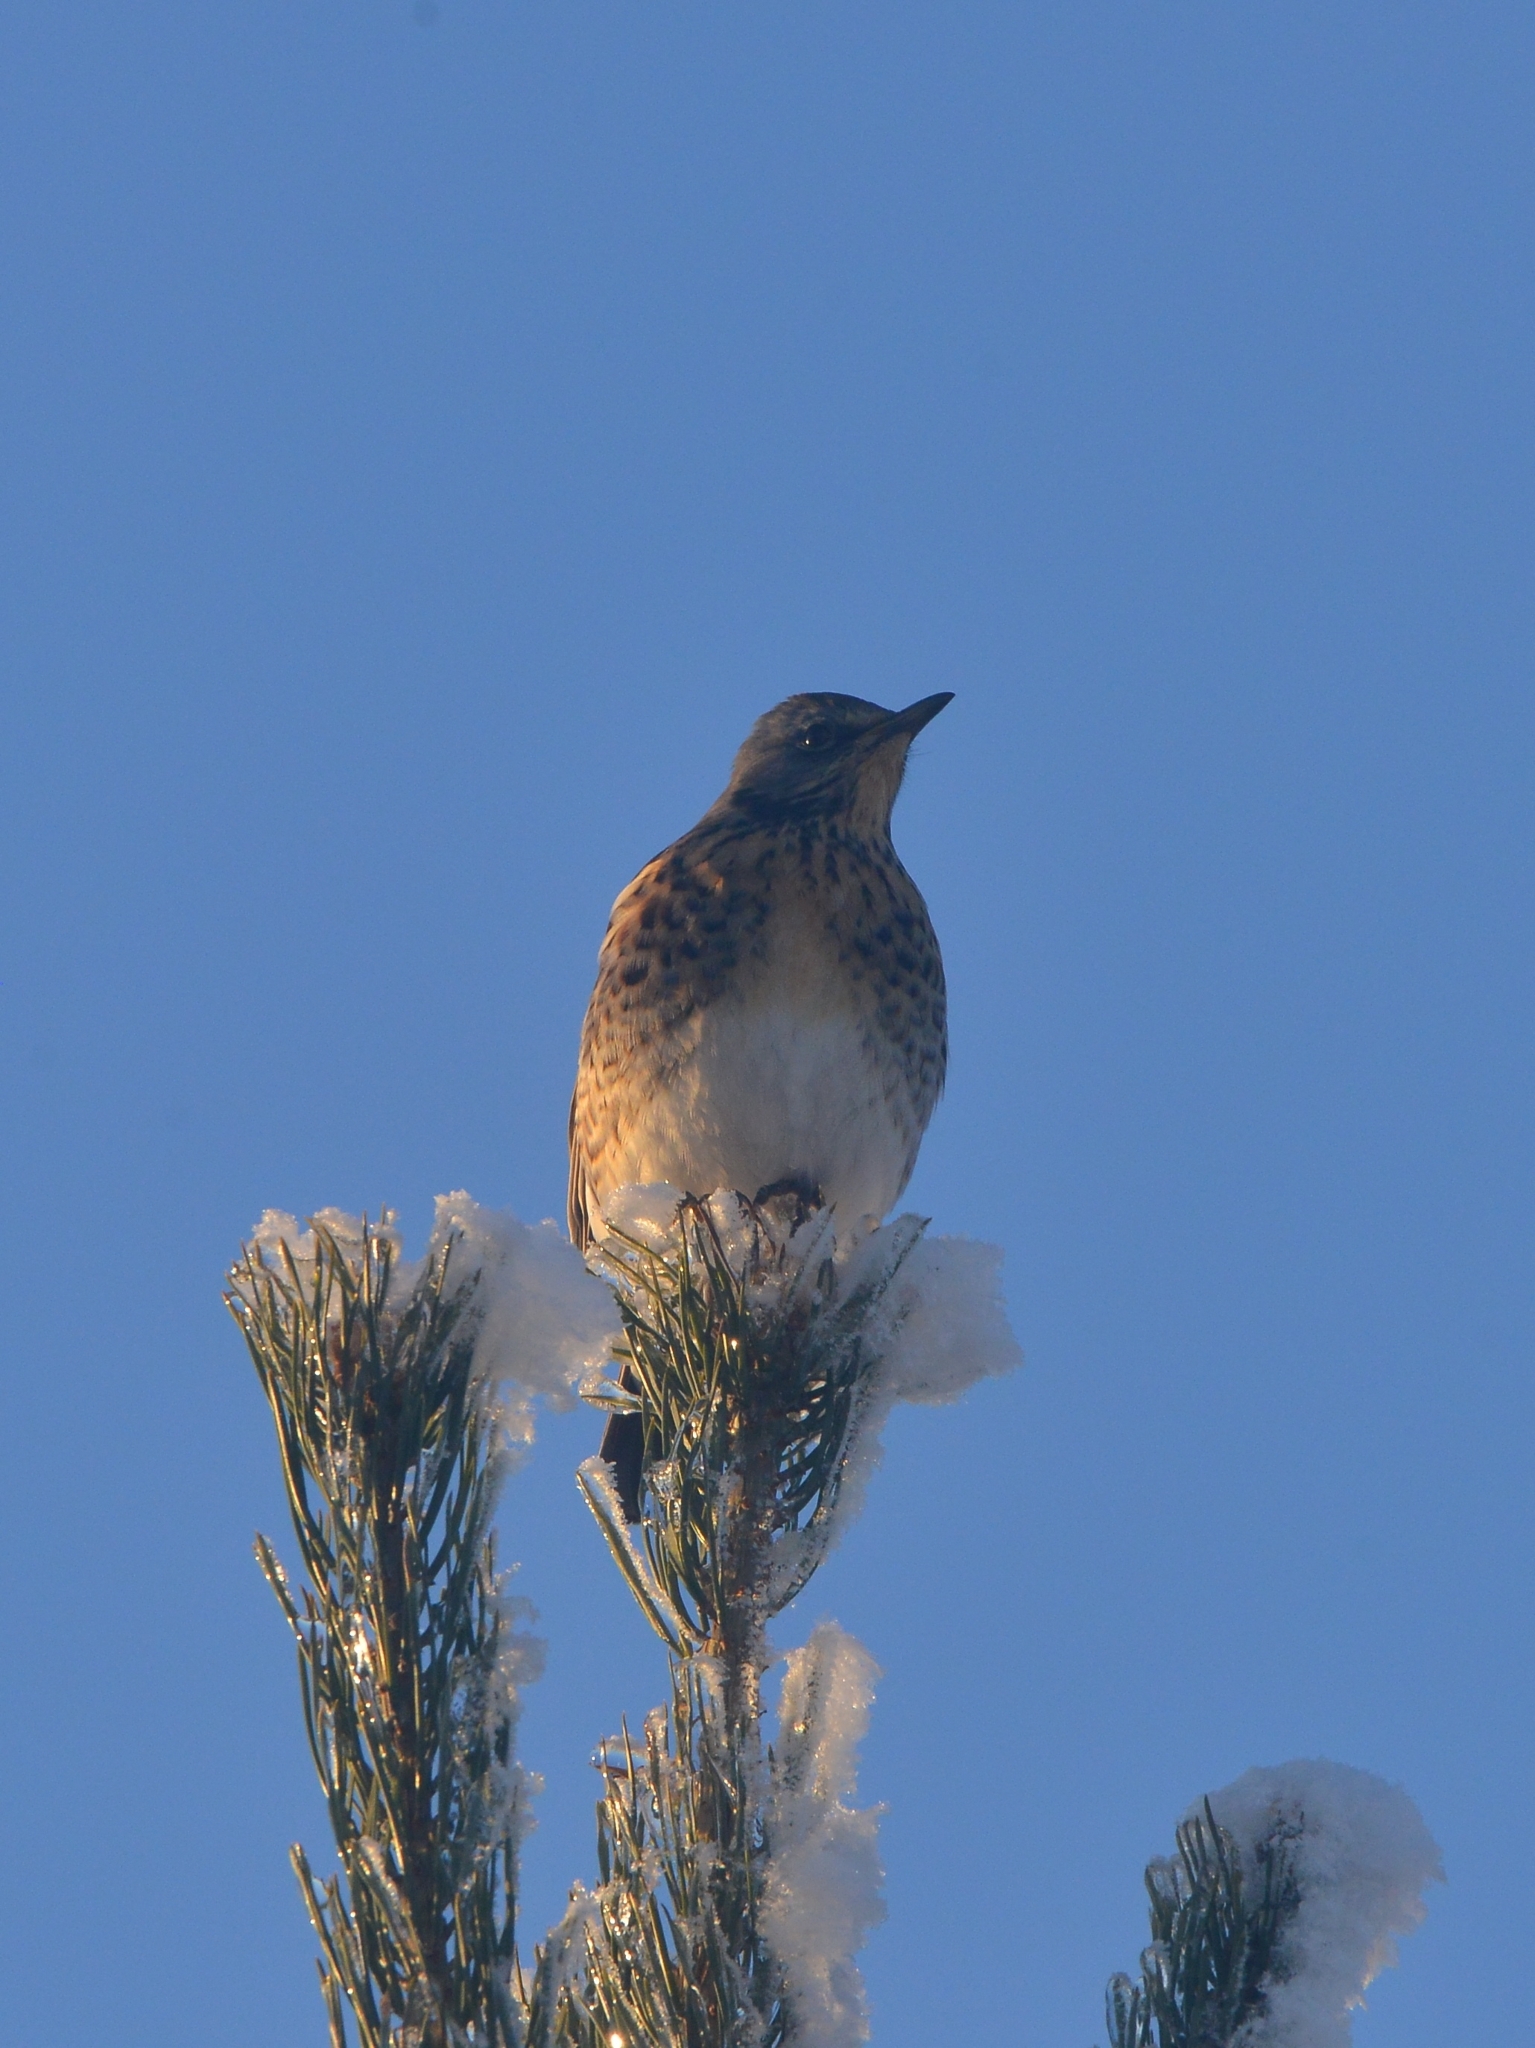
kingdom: Animalia
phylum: Chordata
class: Aves
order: Passeriformes
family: Turdidae
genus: Turdus
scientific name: Turdus pilaris
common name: Fieldfare
